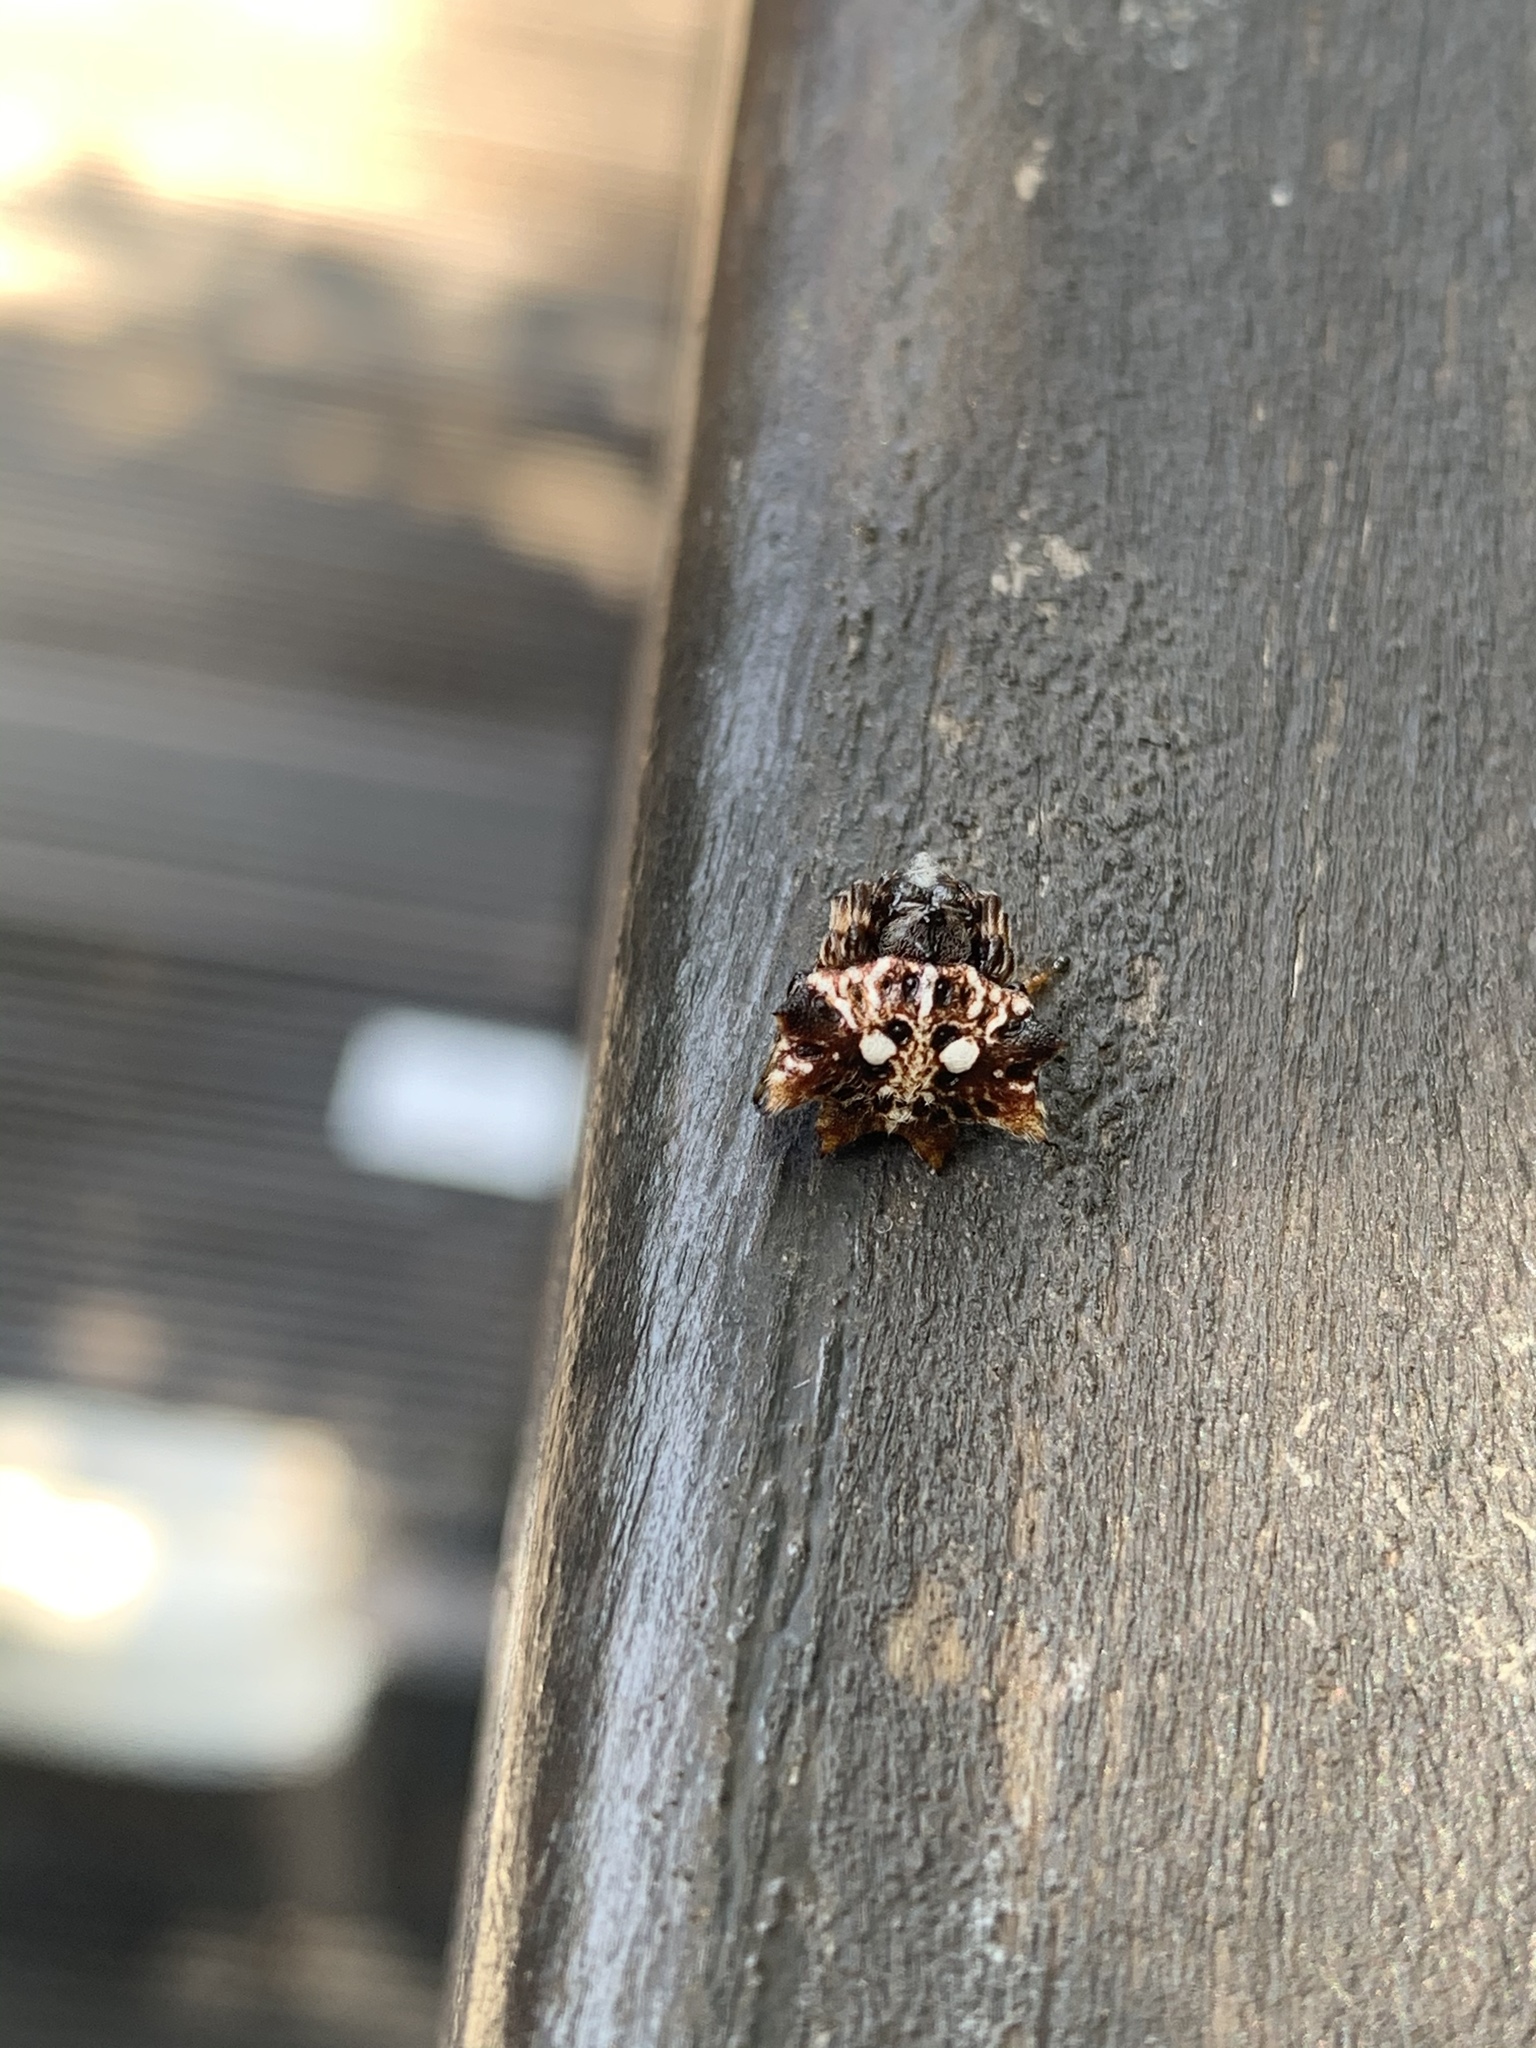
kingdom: Animalia
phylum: Arthropoda
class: Arachnida
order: Araneae
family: Araneidae
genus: Thelacantha
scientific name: Thelacantha brevispina
